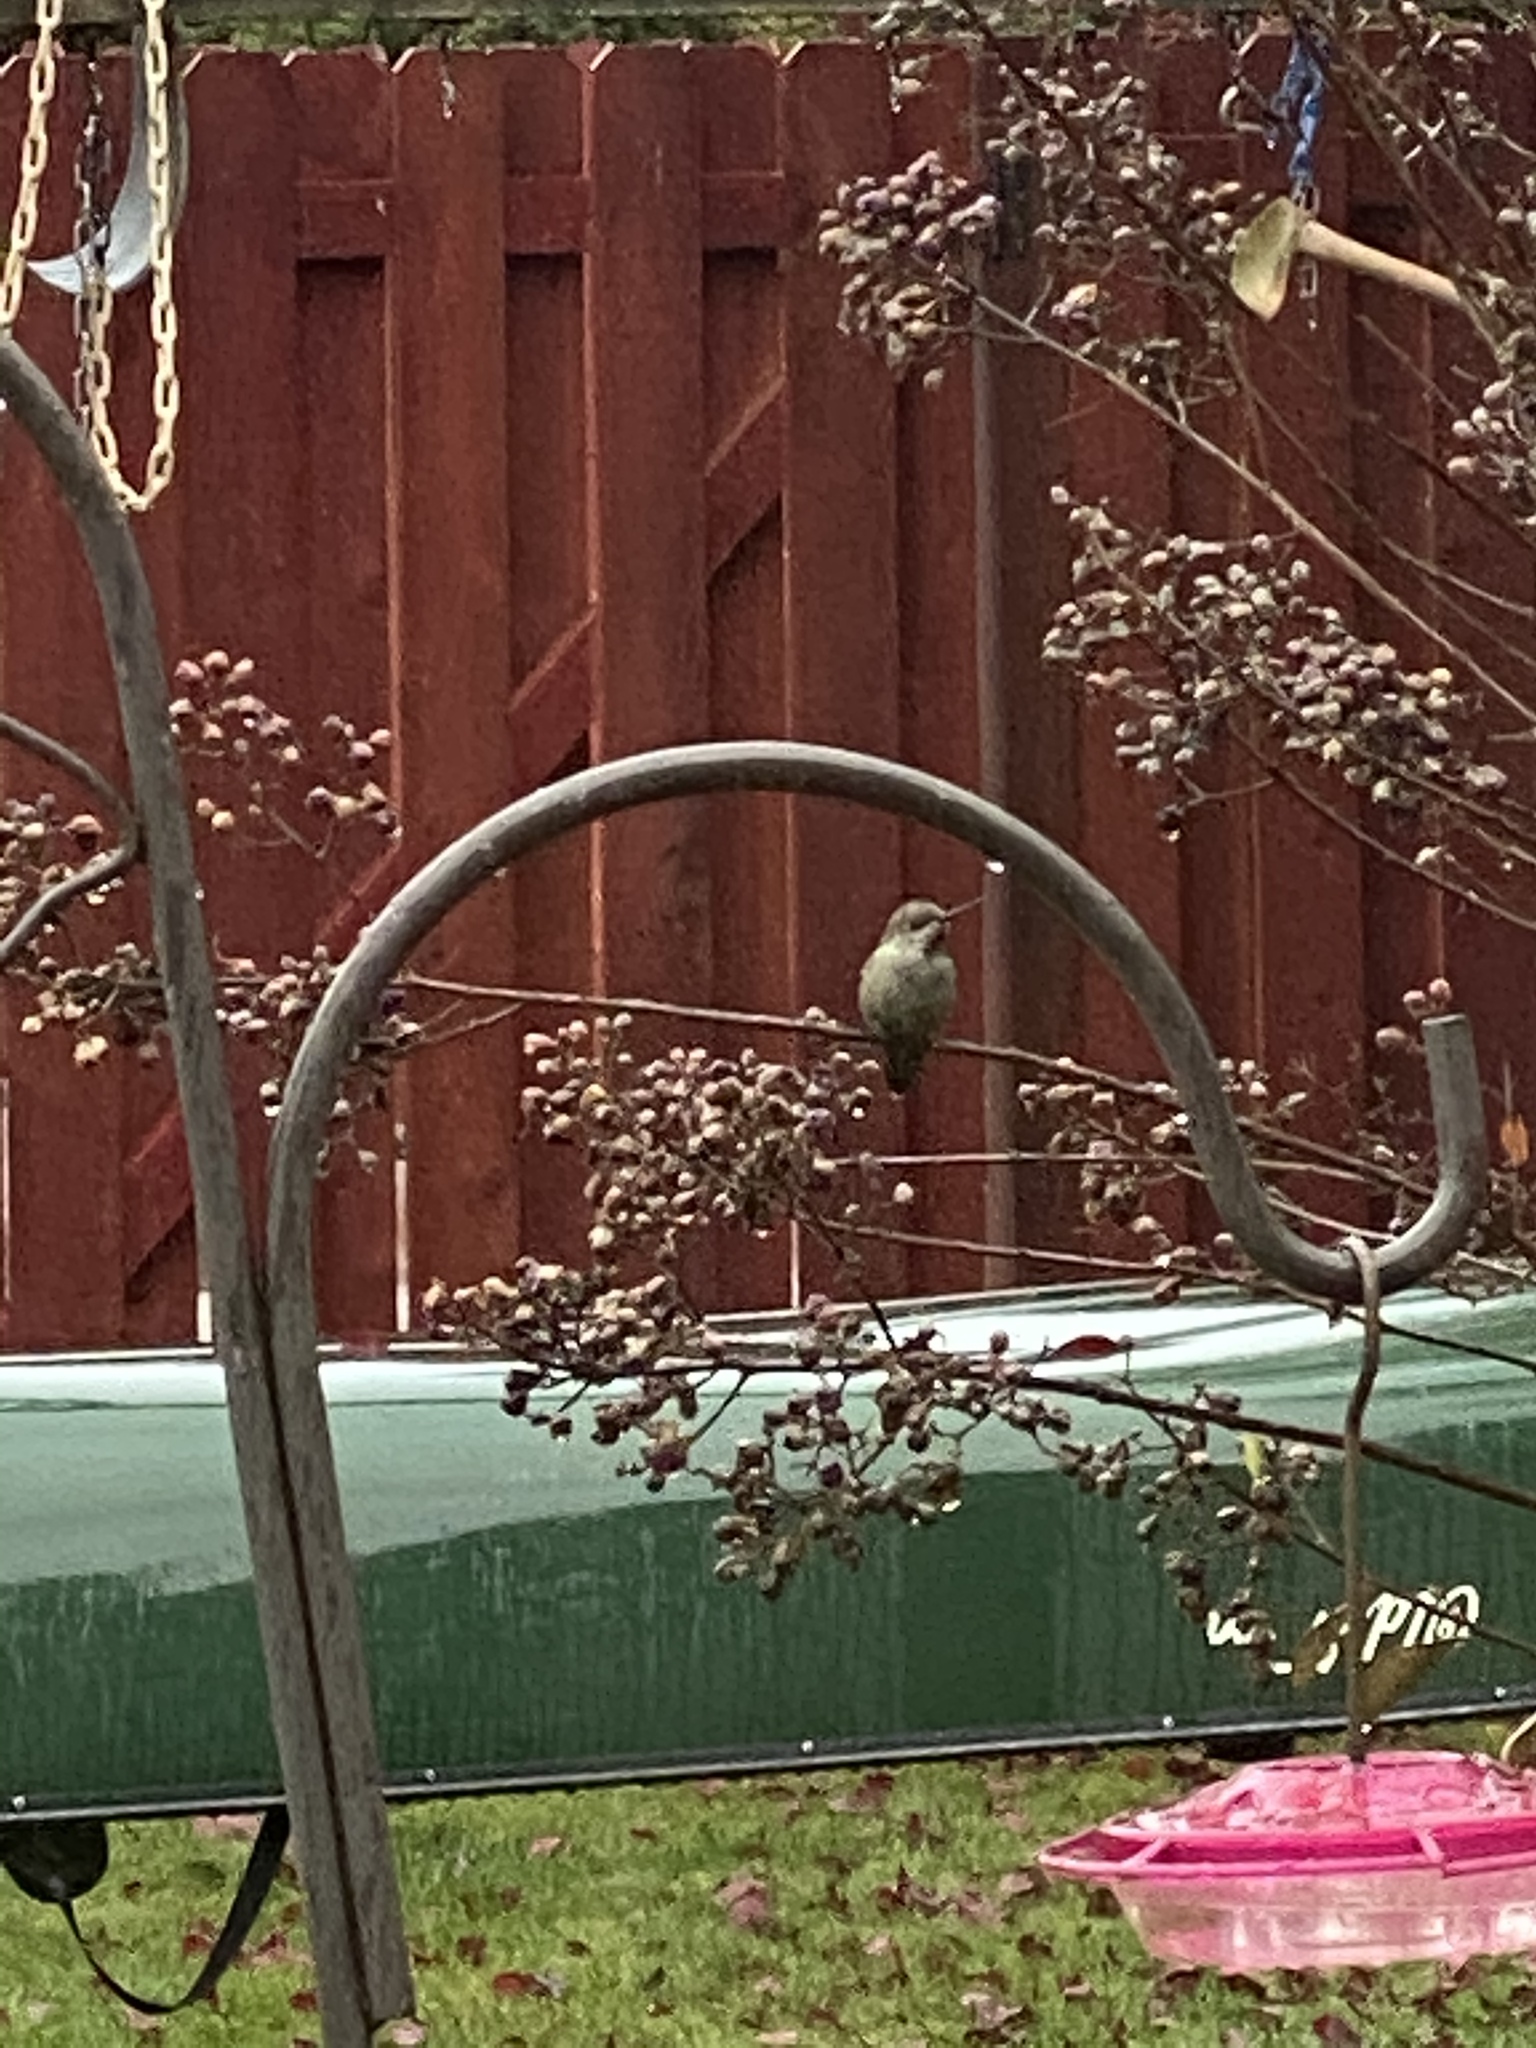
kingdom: Animalia
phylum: Chordata
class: Aves
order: Apodiformes
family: Trochilidae
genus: Calypte
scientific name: Calypte anna
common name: Anna's hummingbird
